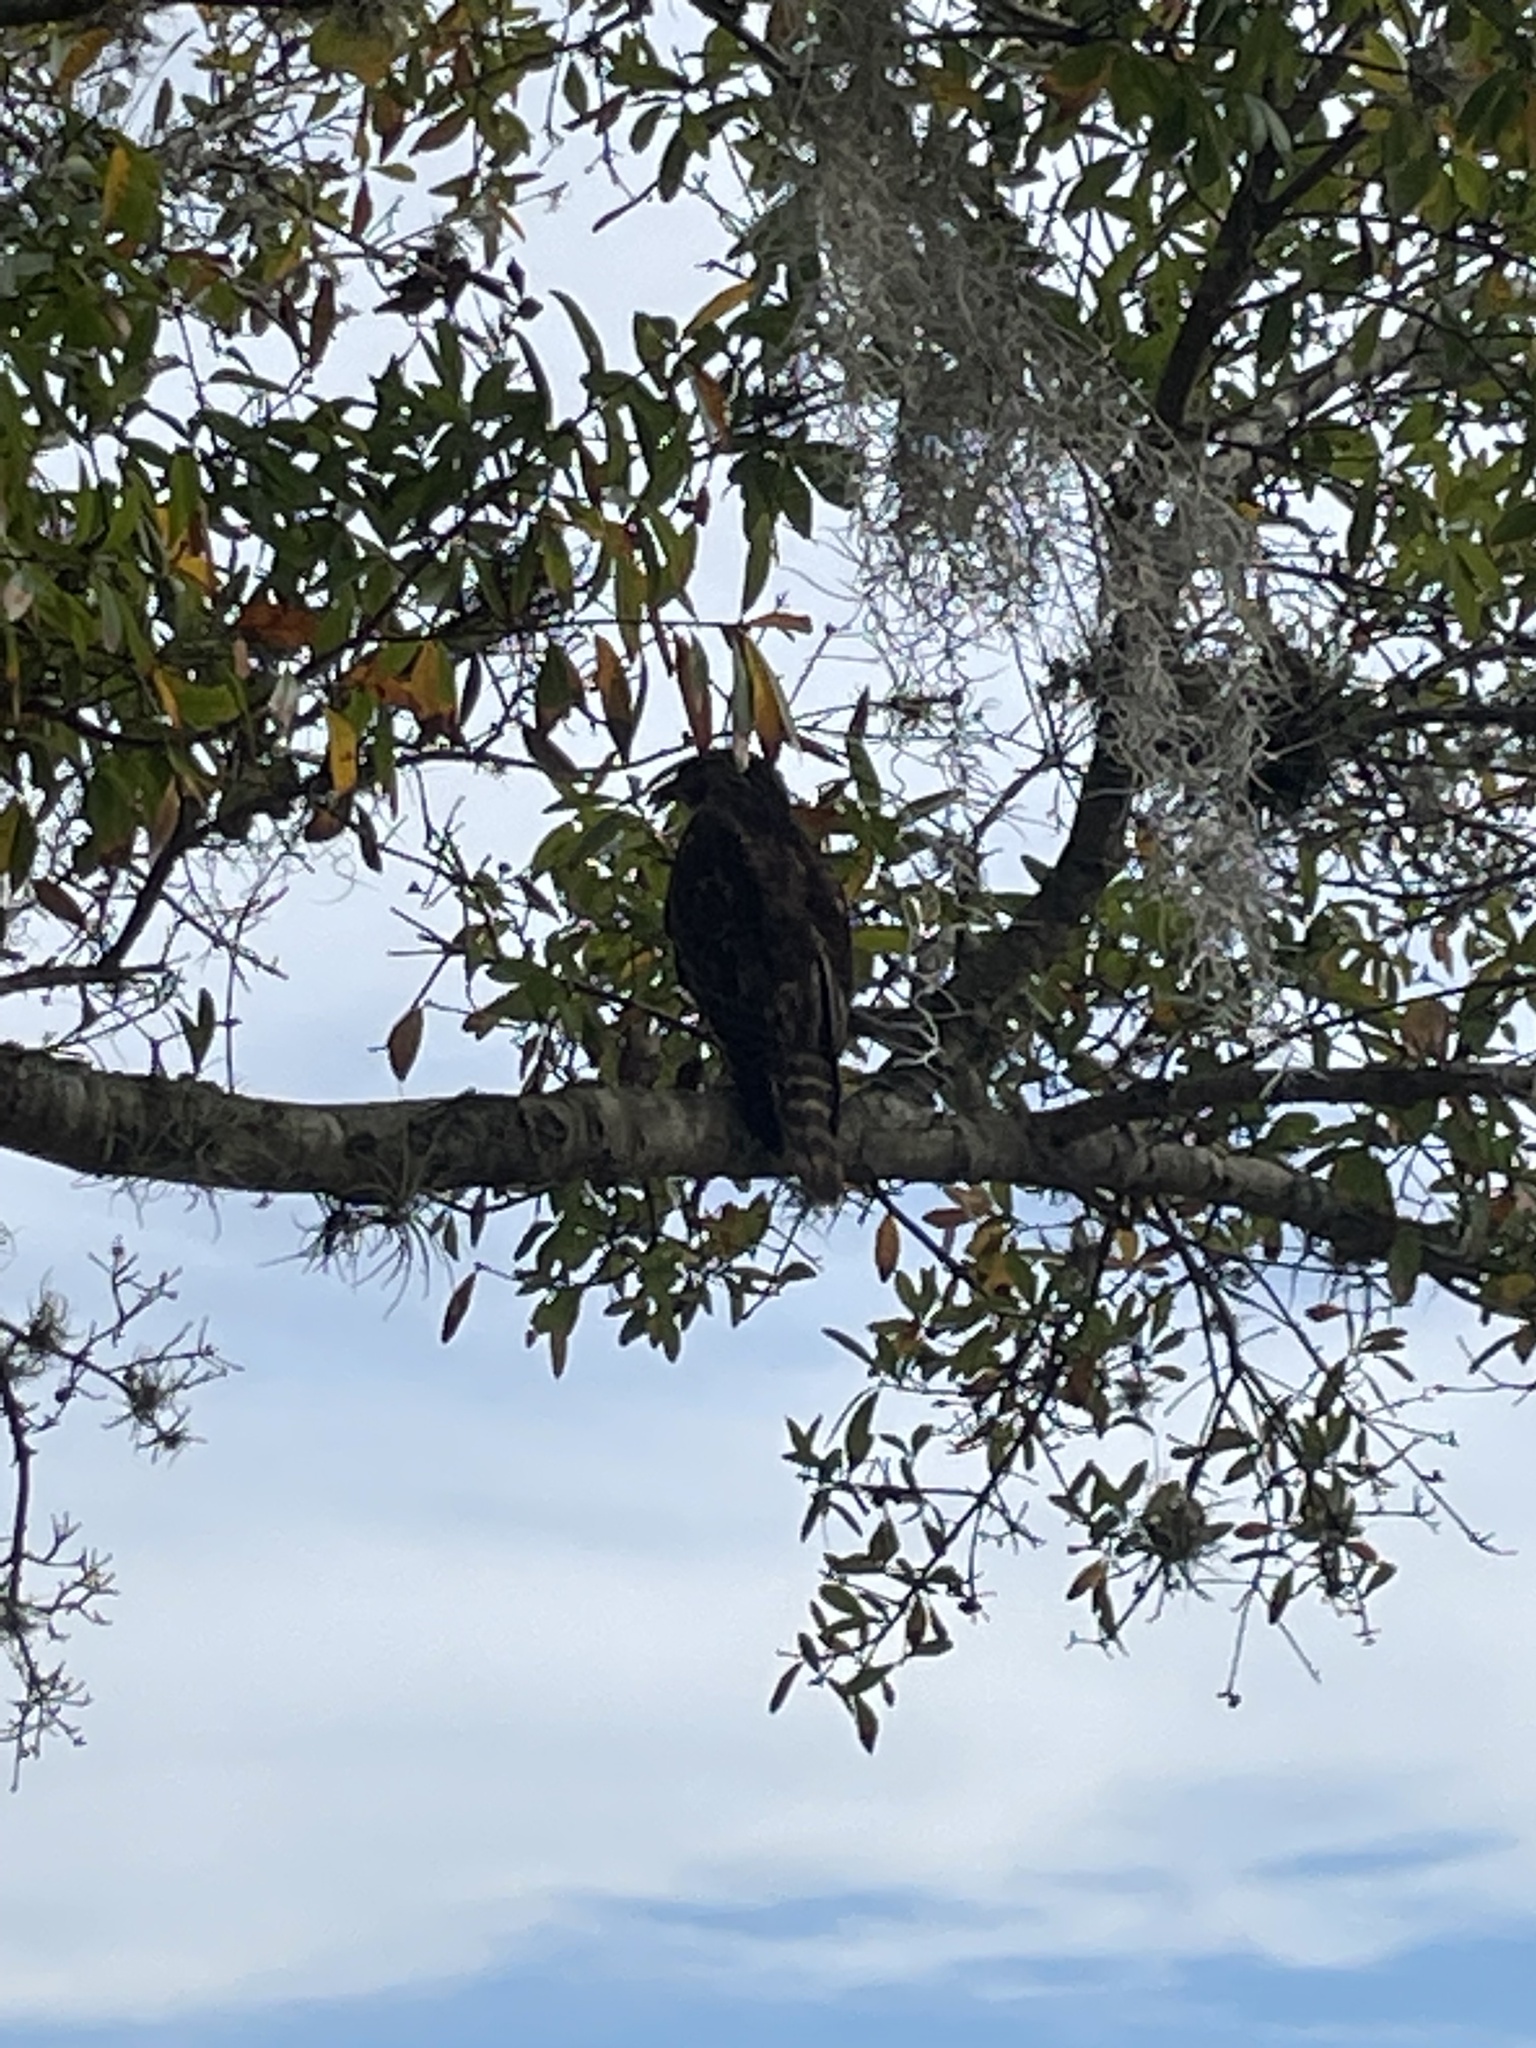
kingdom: Animalia
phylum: Chordata
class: Aves
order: Accipitriformes
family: Accipitridae
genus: Buteo
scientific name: Buteo lineatus
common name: Red-shouldered hawk
